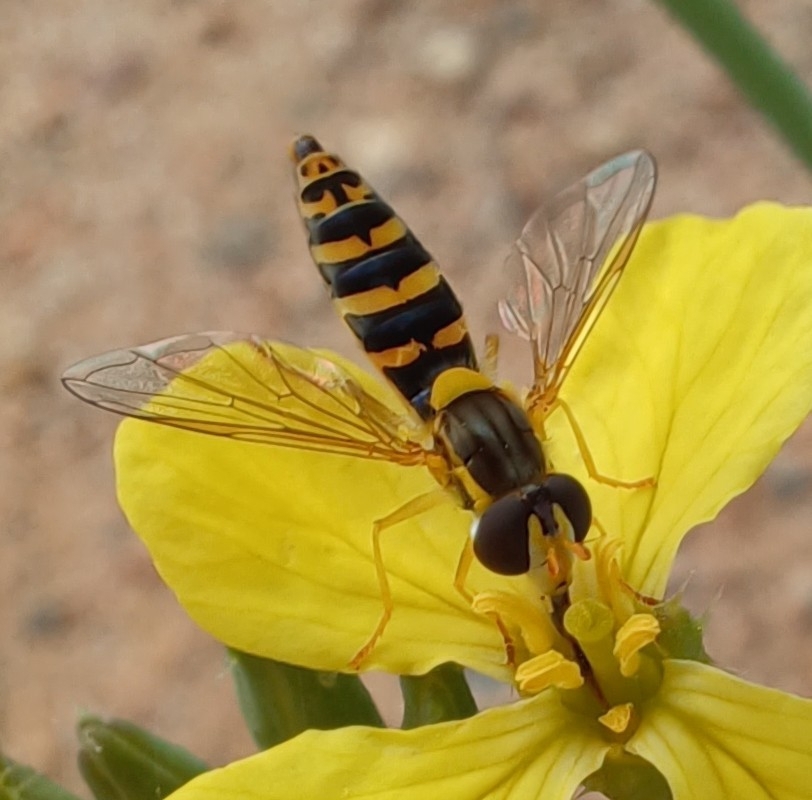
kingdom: Animalia
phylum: Arthropoda
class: Insecta
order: Diptera
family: Syrphidae
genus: Sphaerophoria
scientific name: Sphaerophoria
